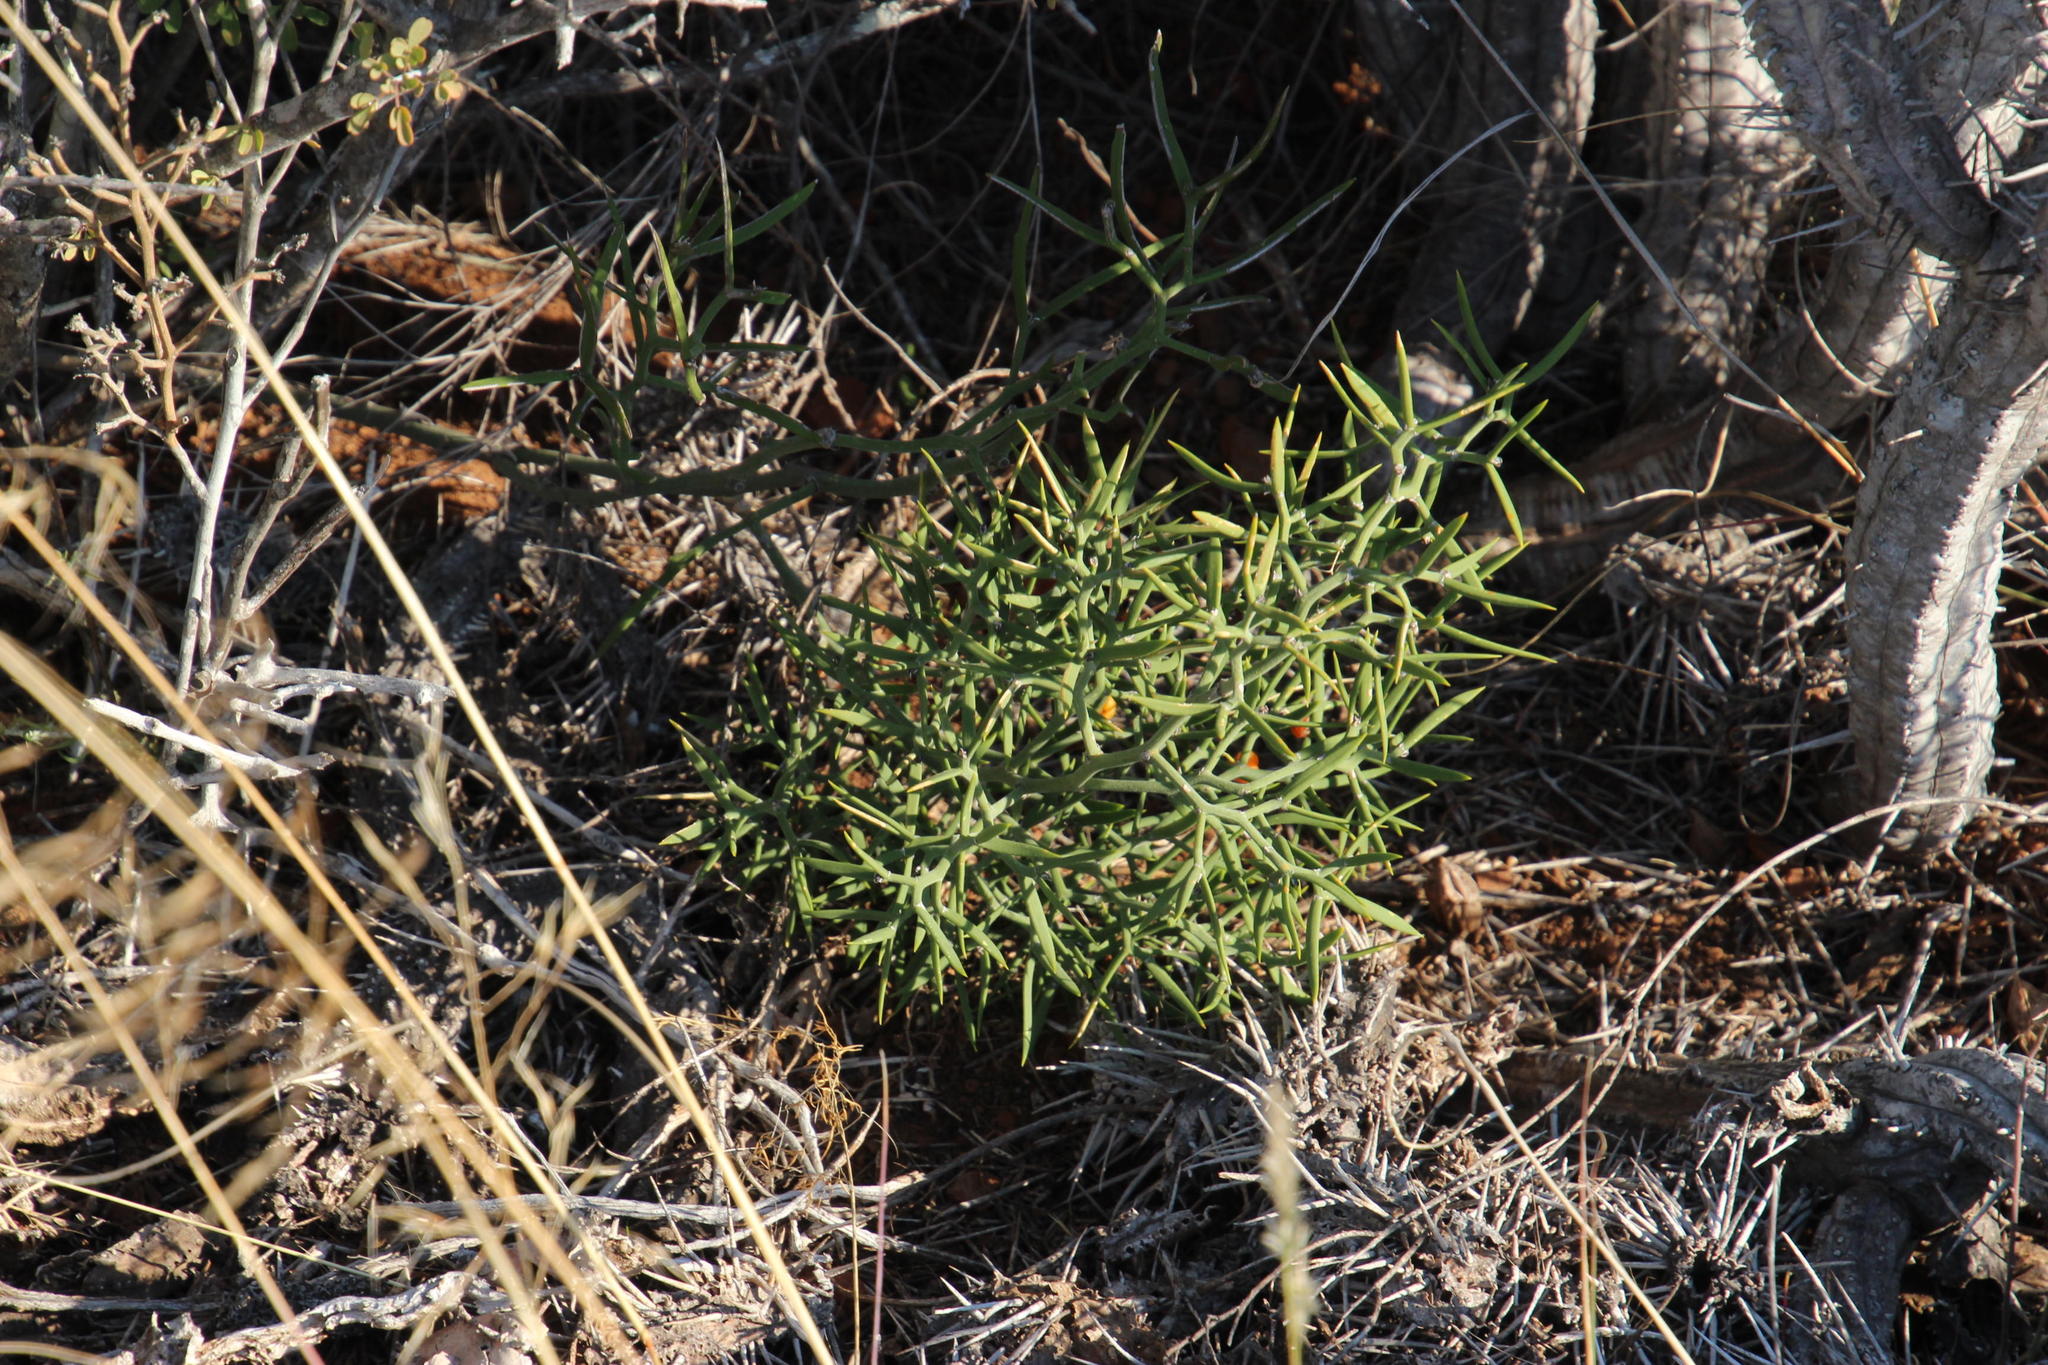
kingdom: Plantae
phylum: Tracheophyta
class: Liliopsida
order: Asparagales
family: Asparagaceae
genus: Asparagus
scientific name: Asparagus striatus
